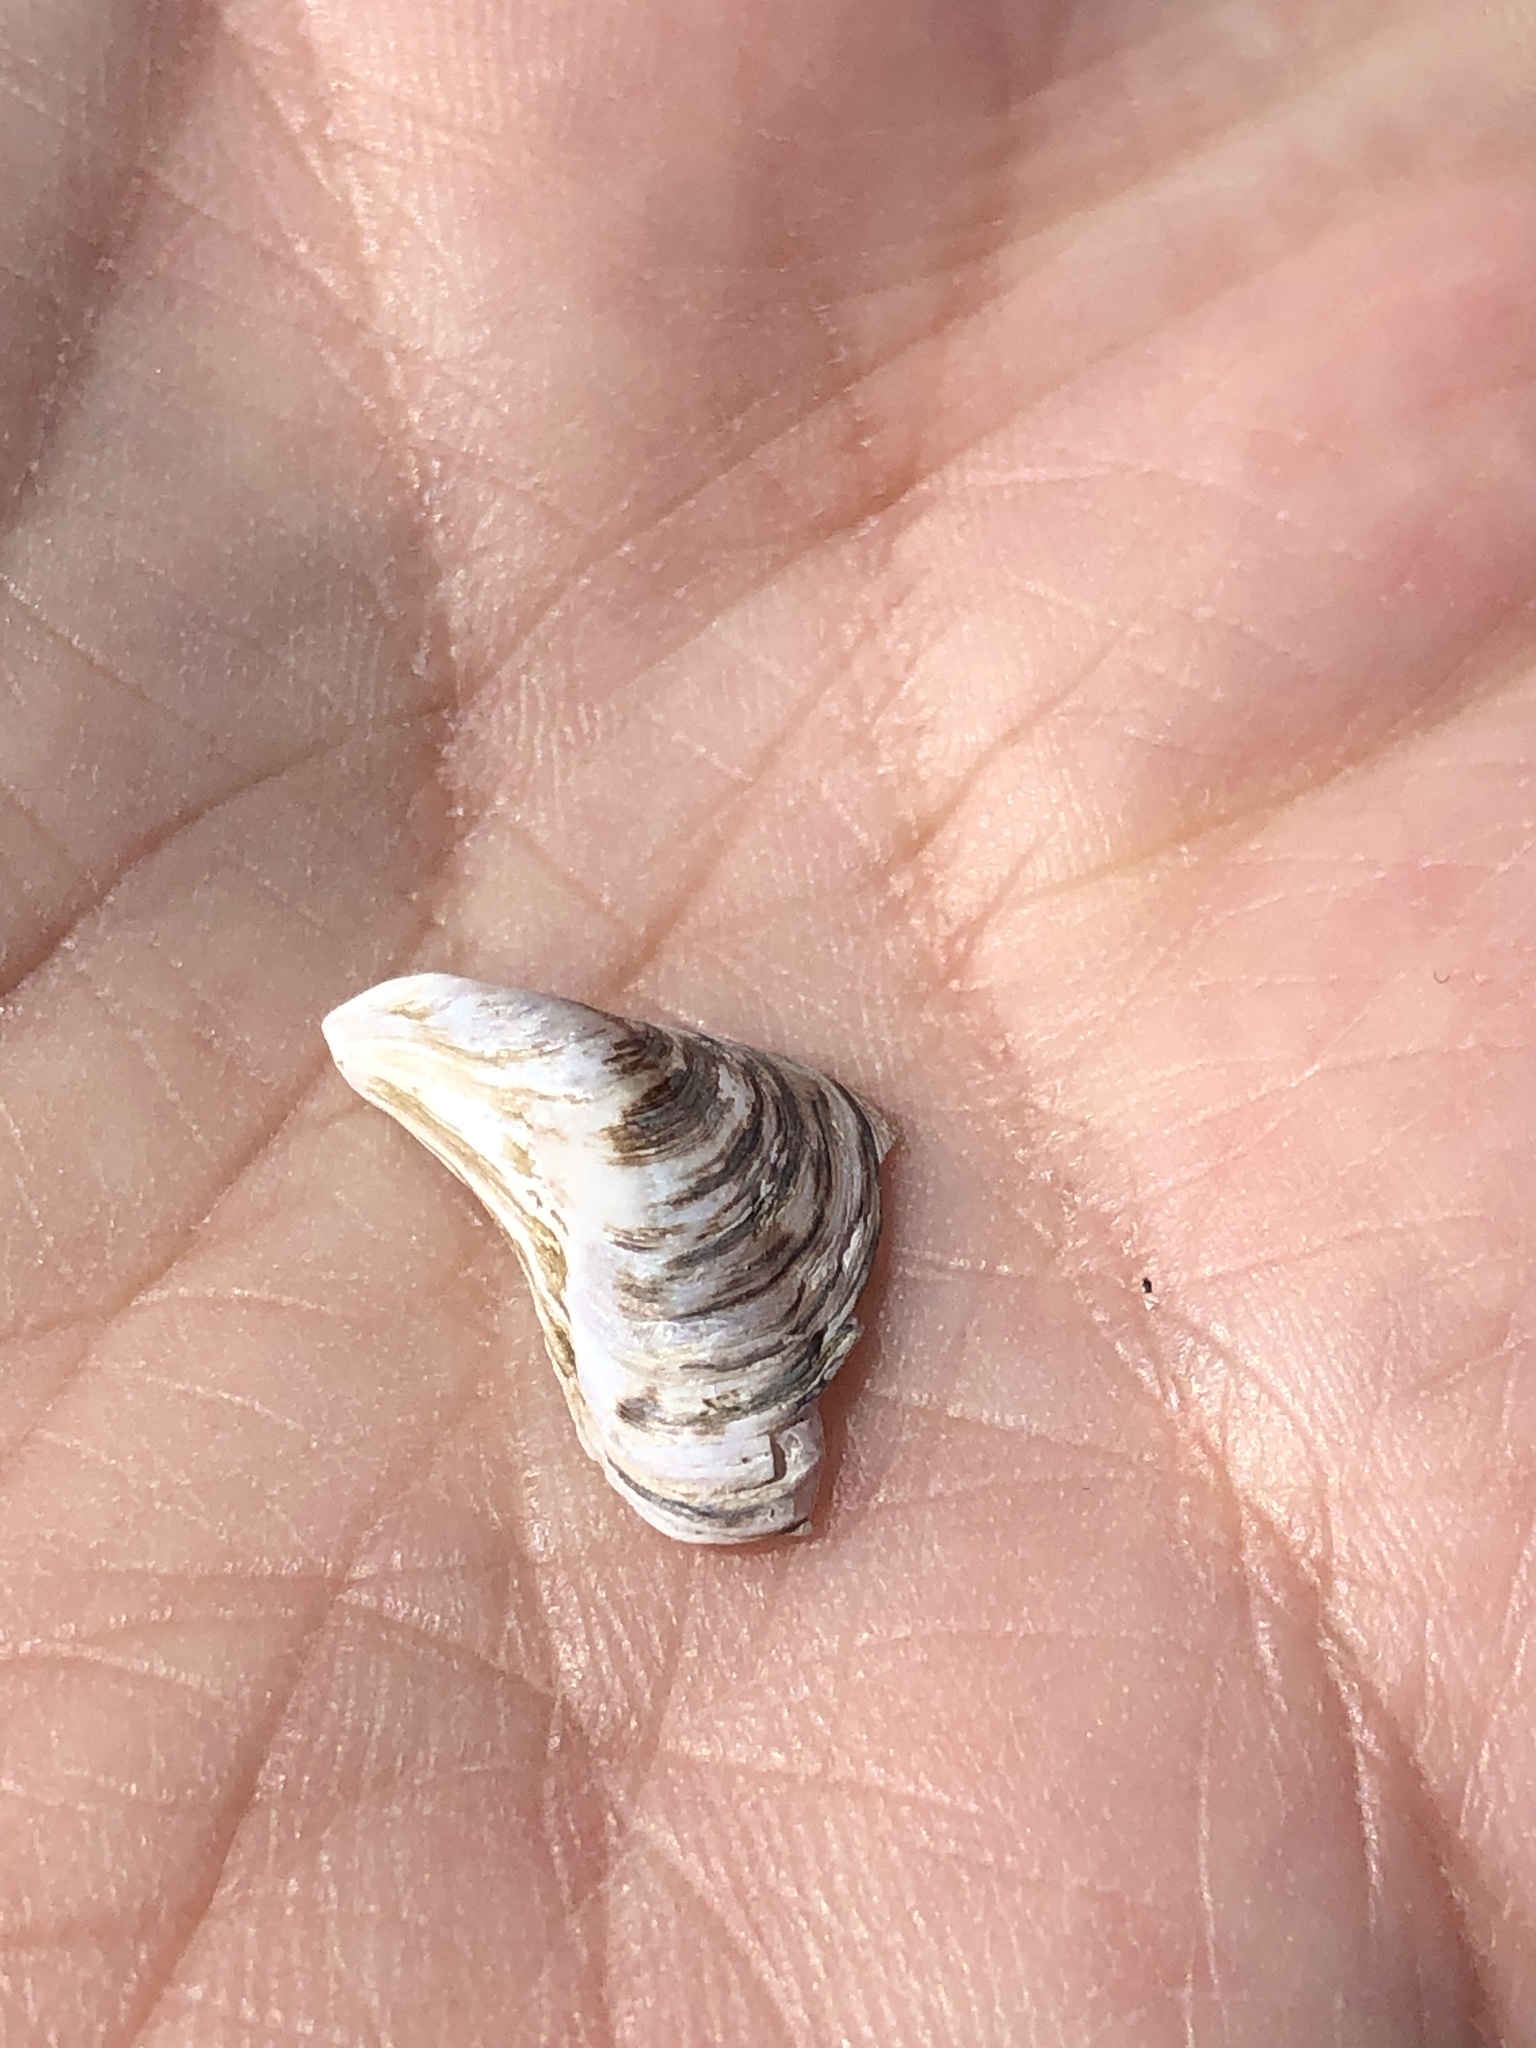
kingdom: Animalia
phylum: Mollusca
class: Bivalvia
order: Myida
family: Dreissenidae
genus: Dreissena
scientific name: Dreissena bugensis
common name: Quagga mussel
